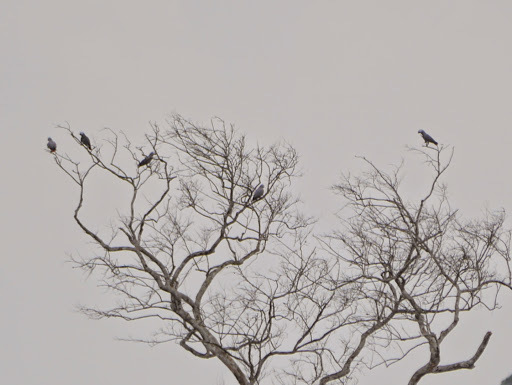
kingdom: Animalia
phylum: Chordata
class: Aves
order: Psittaciformes
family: Psittacidae
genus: Psittacus
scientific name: Psittacus erithacus
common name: Grey parrot
